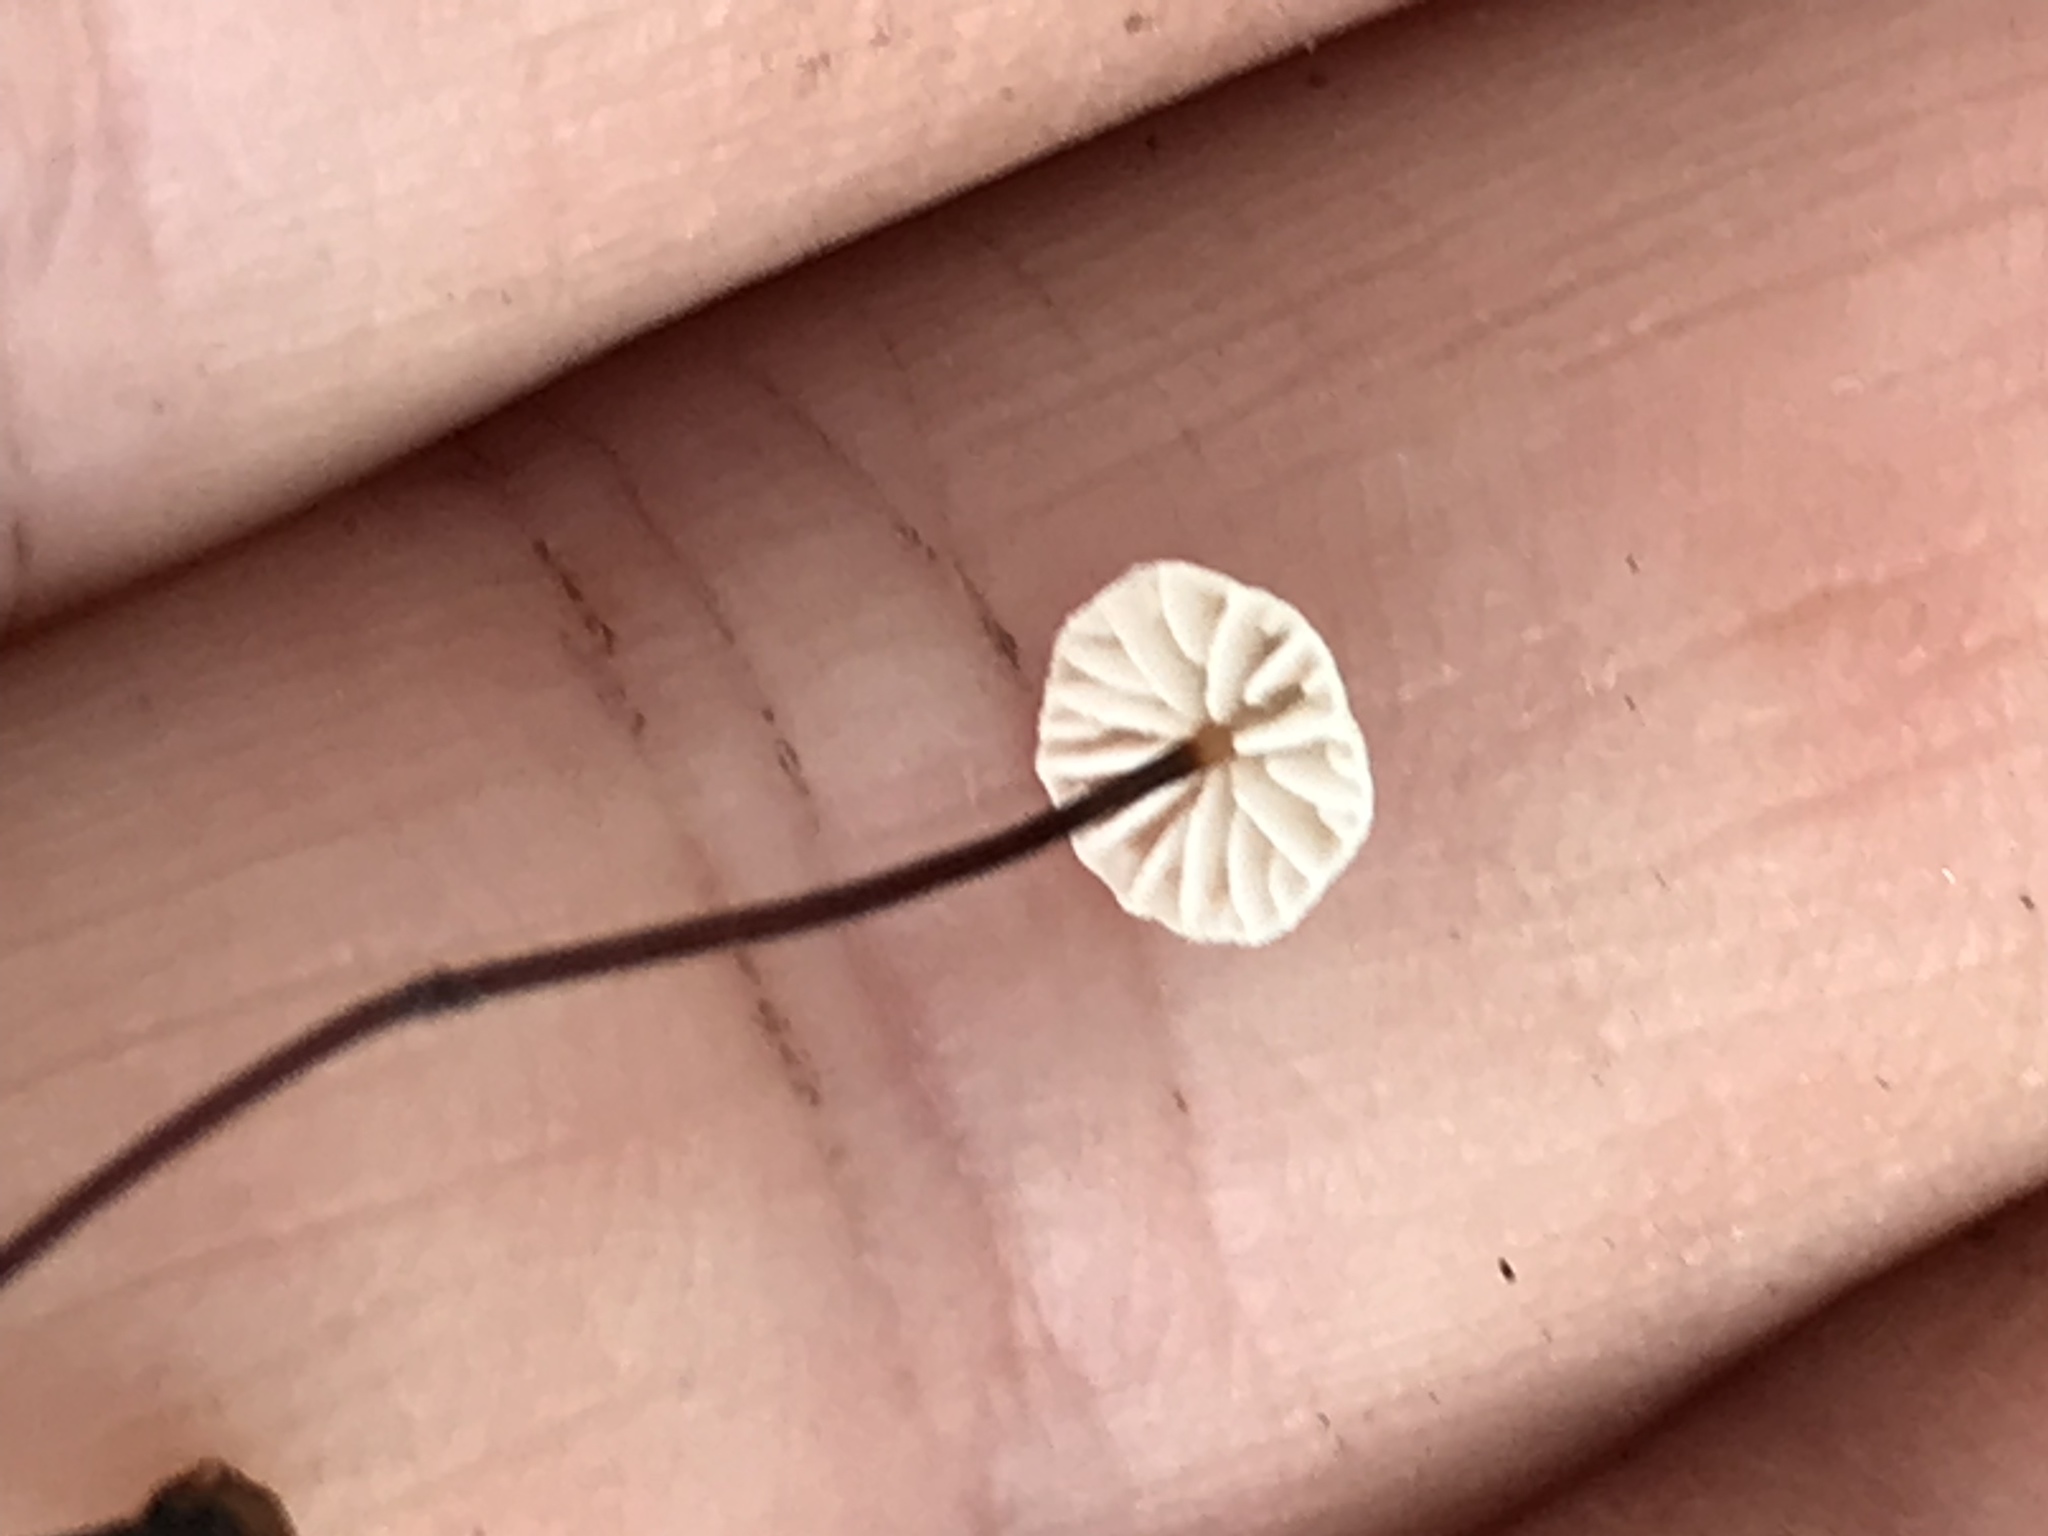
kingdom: Fungi
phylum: Basidiomycota
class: Agaricomycetes
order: Agaricales
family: Omphalotaceae
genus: Collybiopsis
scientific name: Collybiopsis quercophila
